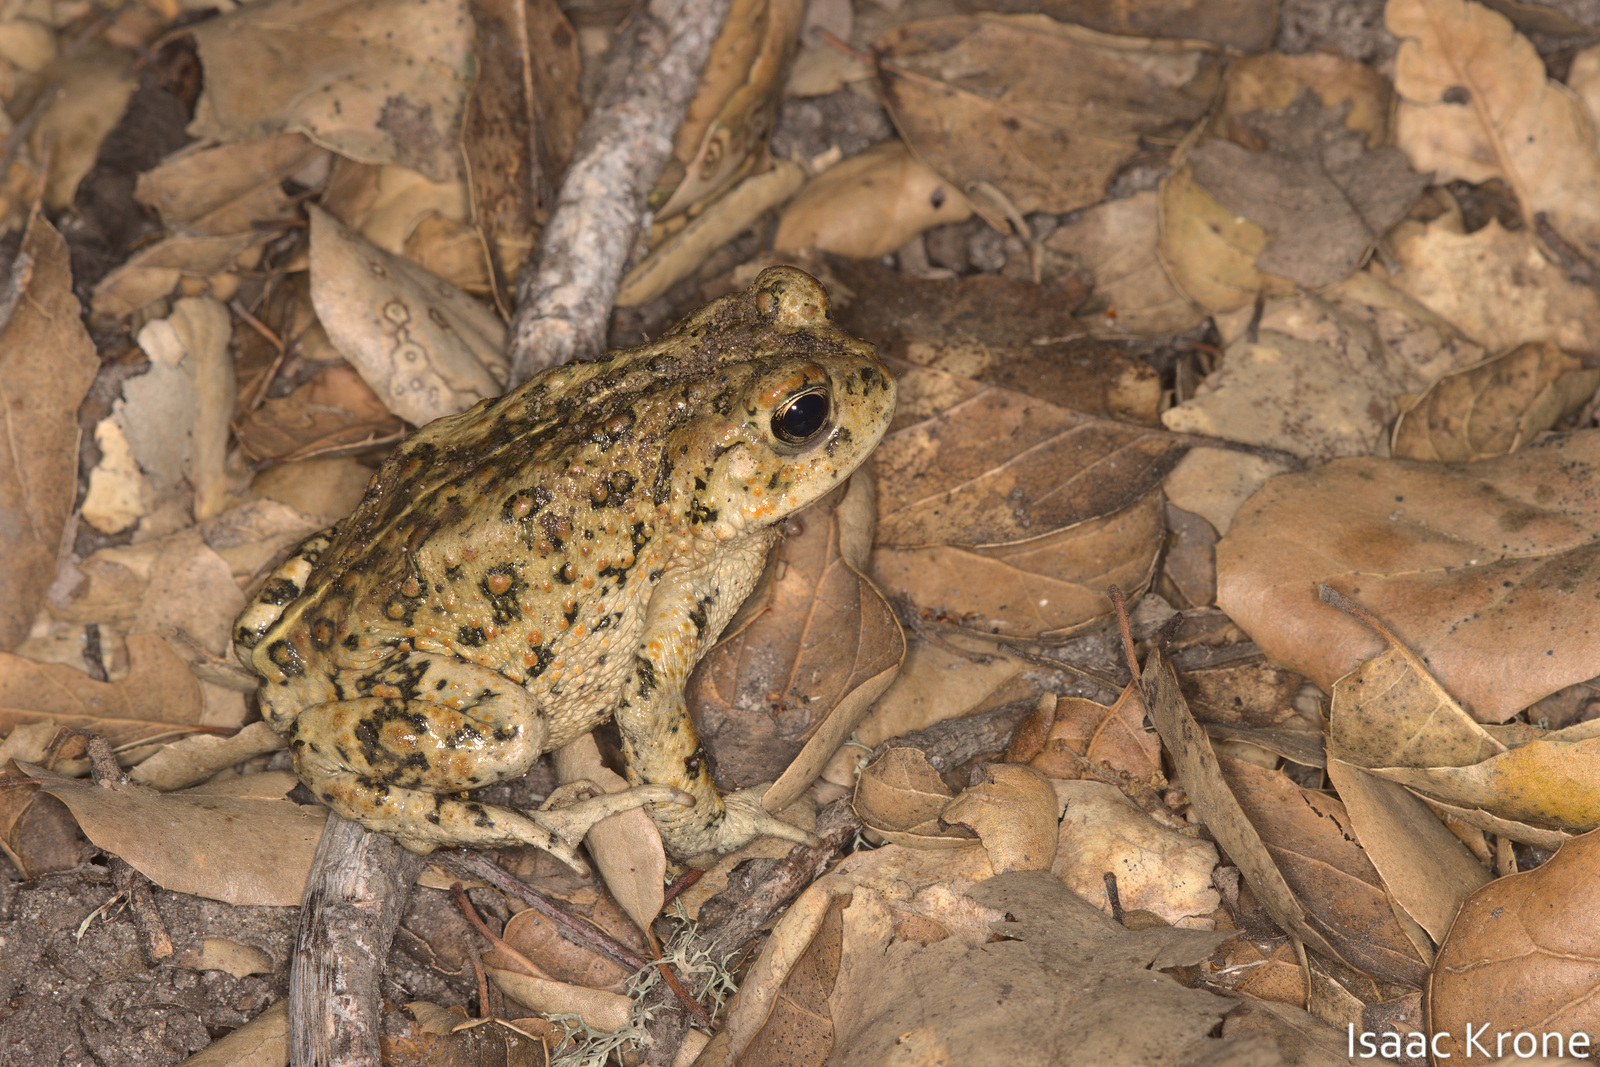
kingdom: Animalia
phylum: Chordata
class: Amphibia
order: Anura
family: Bufonidae
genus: Anaxyrus
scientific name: Anaxyrus boreas
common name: Western toad
